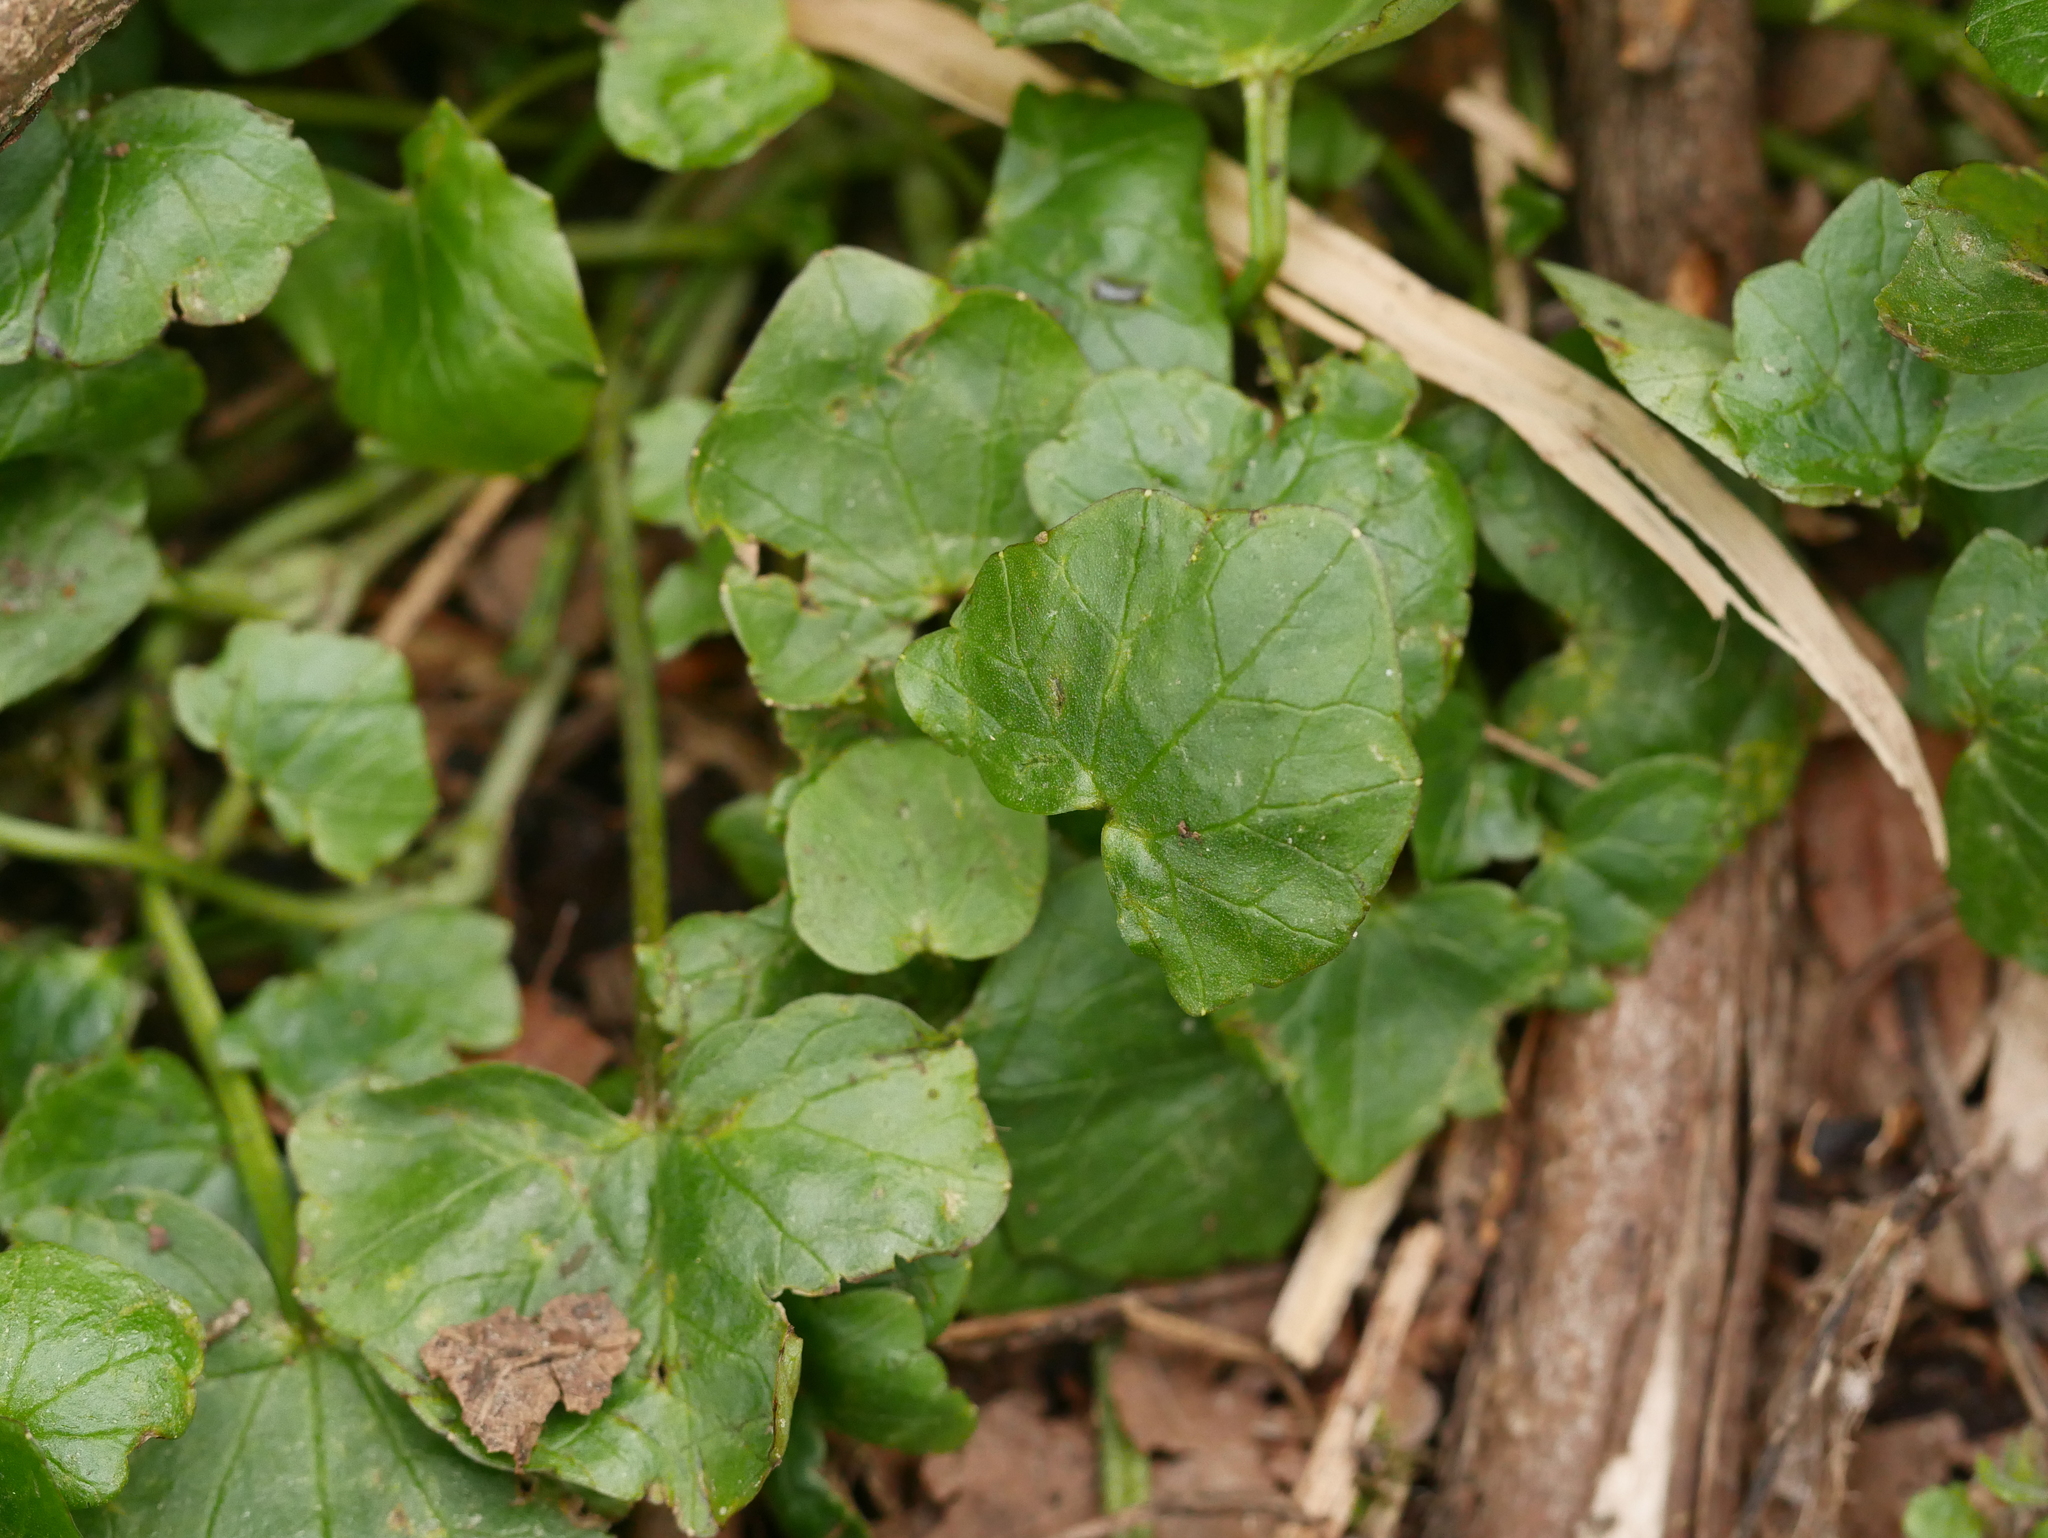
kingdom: Plantae
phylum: Tracheophyta
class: Magnoliopsida
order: Ranunculales
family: Ranunculaceae
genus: Ficaria
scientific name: Ficaria verna
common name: Lesser celandine
